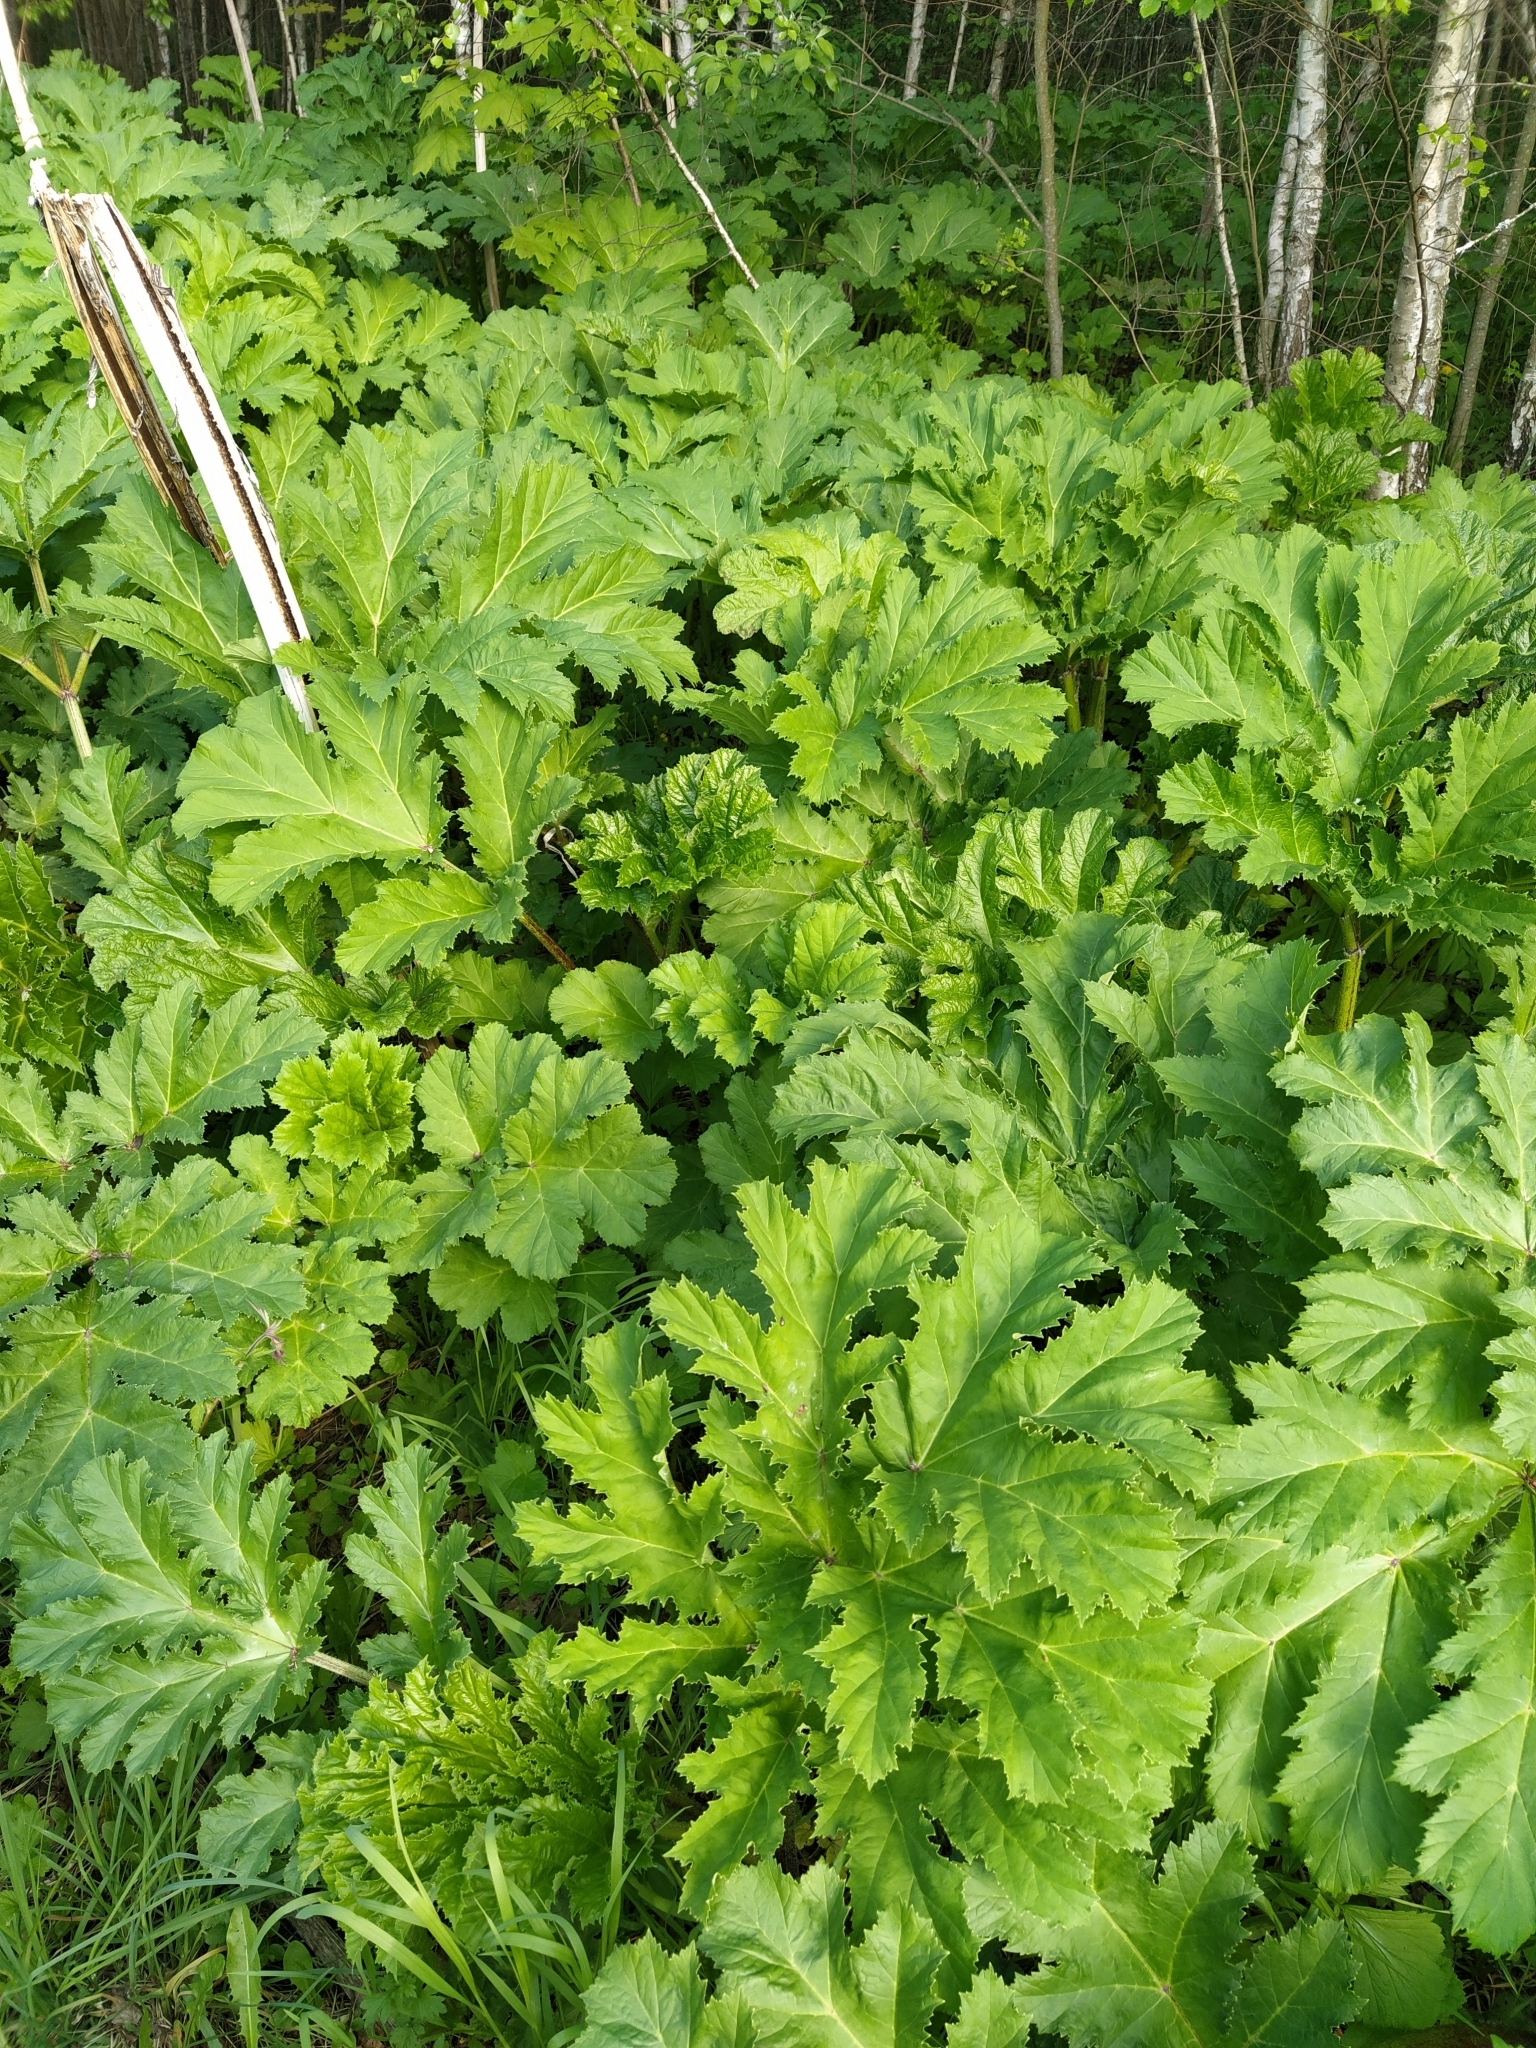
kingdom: Plantae
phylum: Tracheophyta
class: Magnoliopsida
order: Apiales
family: Apiaceae
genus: Heracleum
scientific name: Heracleum sosnowskyi
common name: Sosnowsky's hogweed
